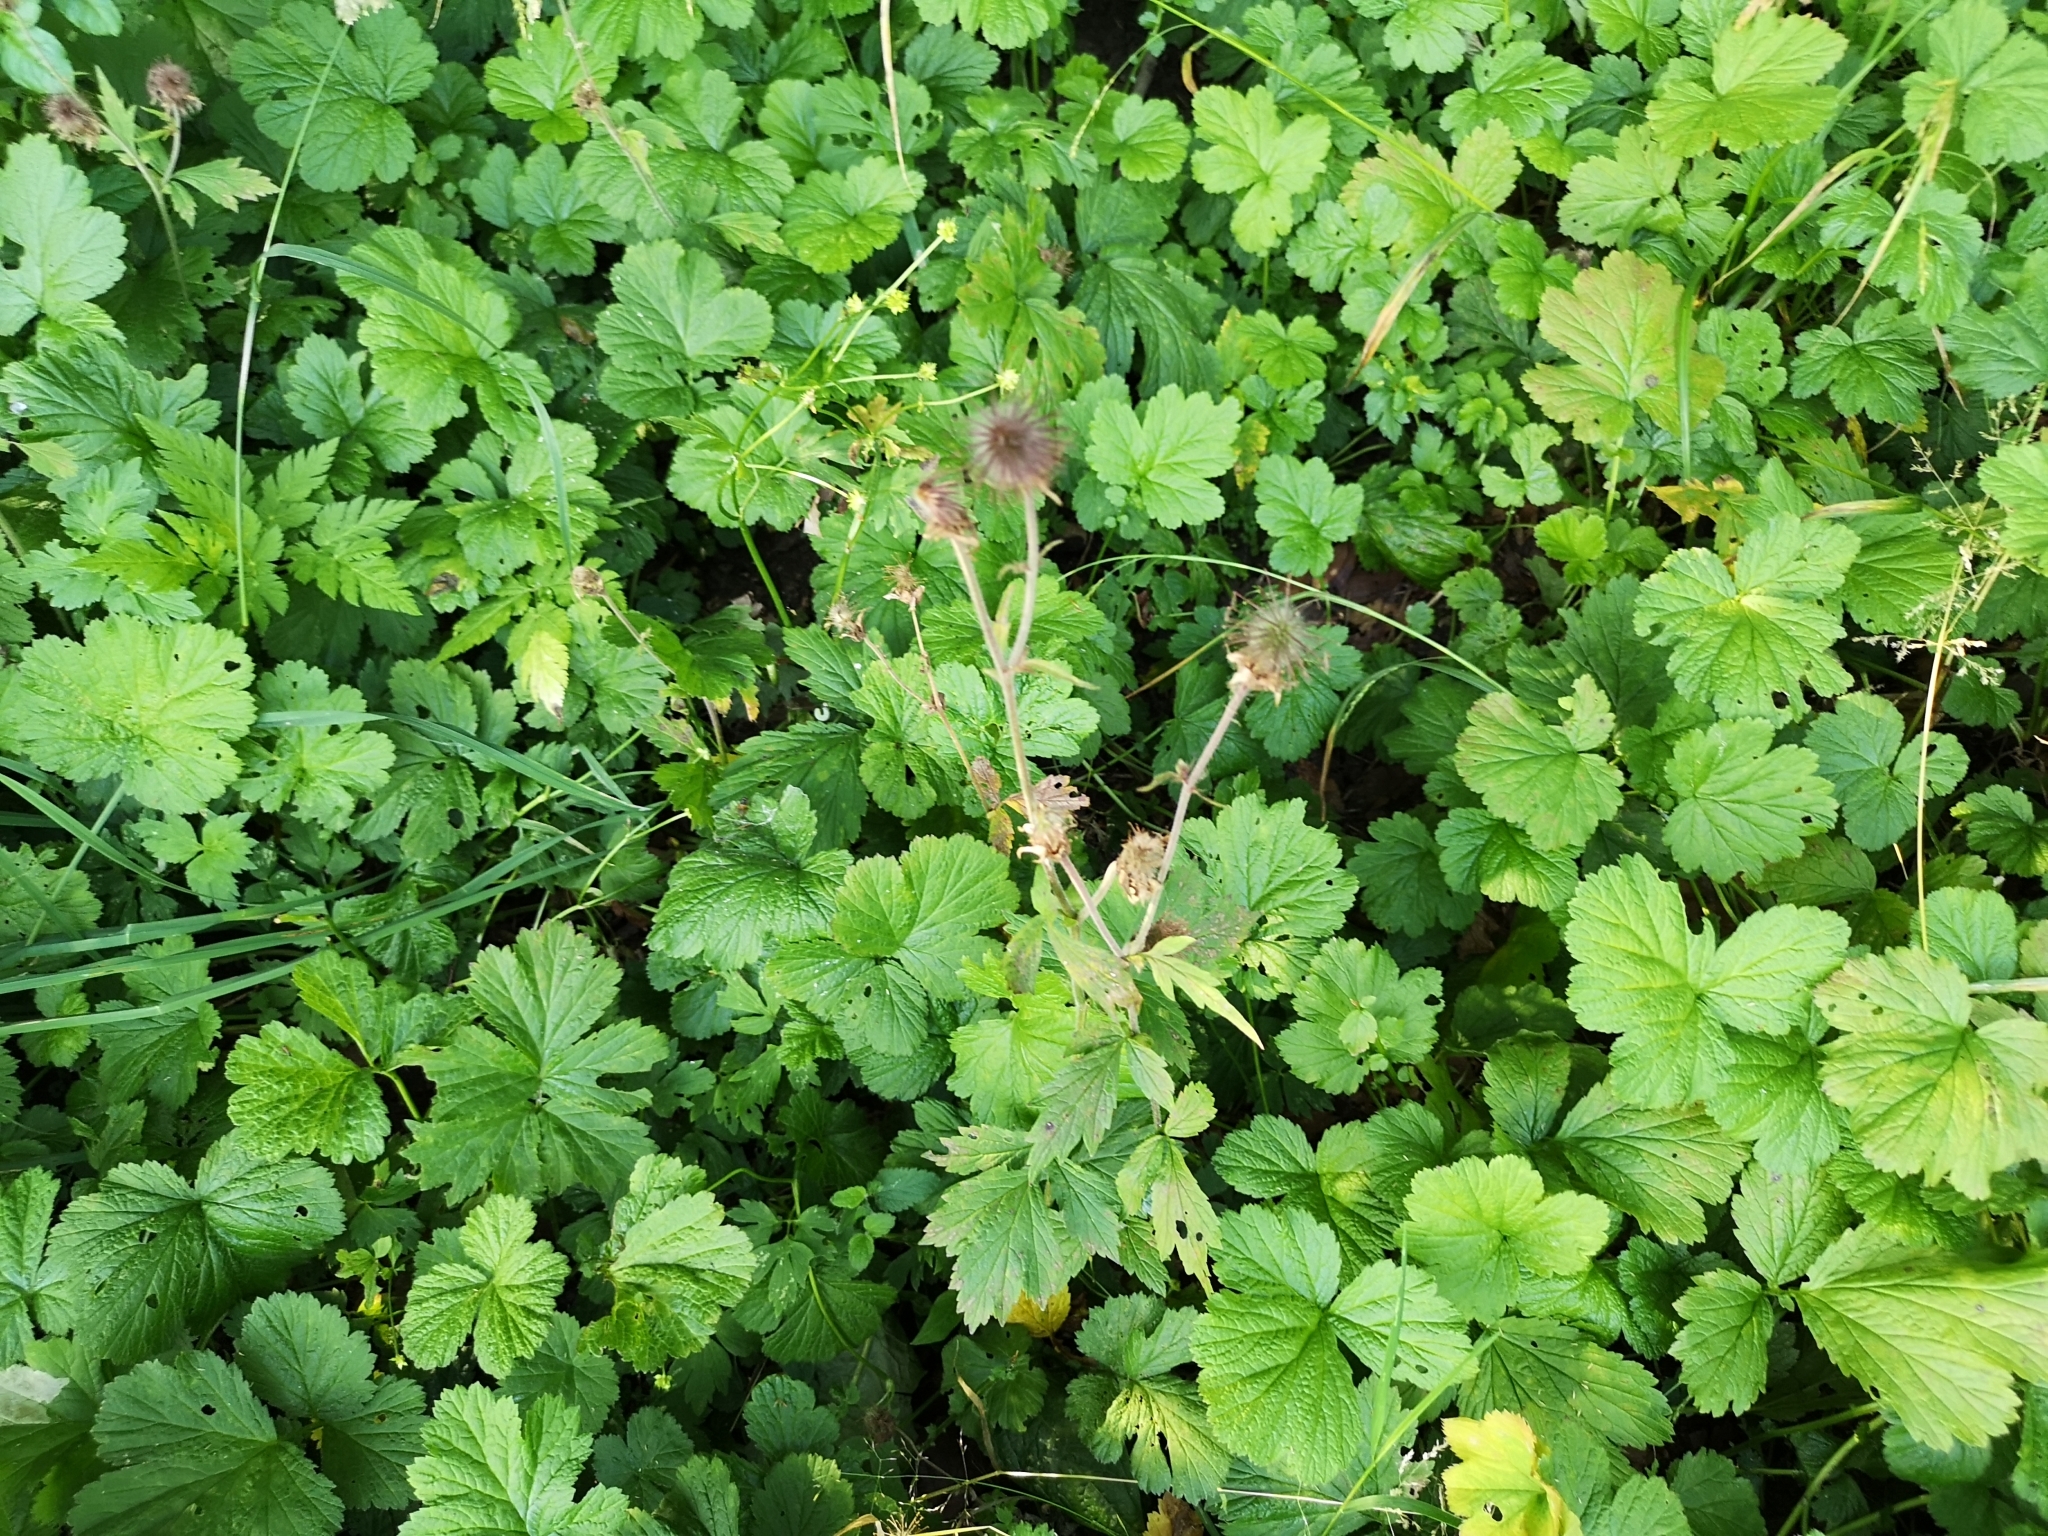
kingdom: Plantae
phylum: Tracheophyta
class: Magnoliopsida
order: Rosales
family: Rosaceae
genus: Geum
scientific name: Geum urbanum
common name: Wood avens
